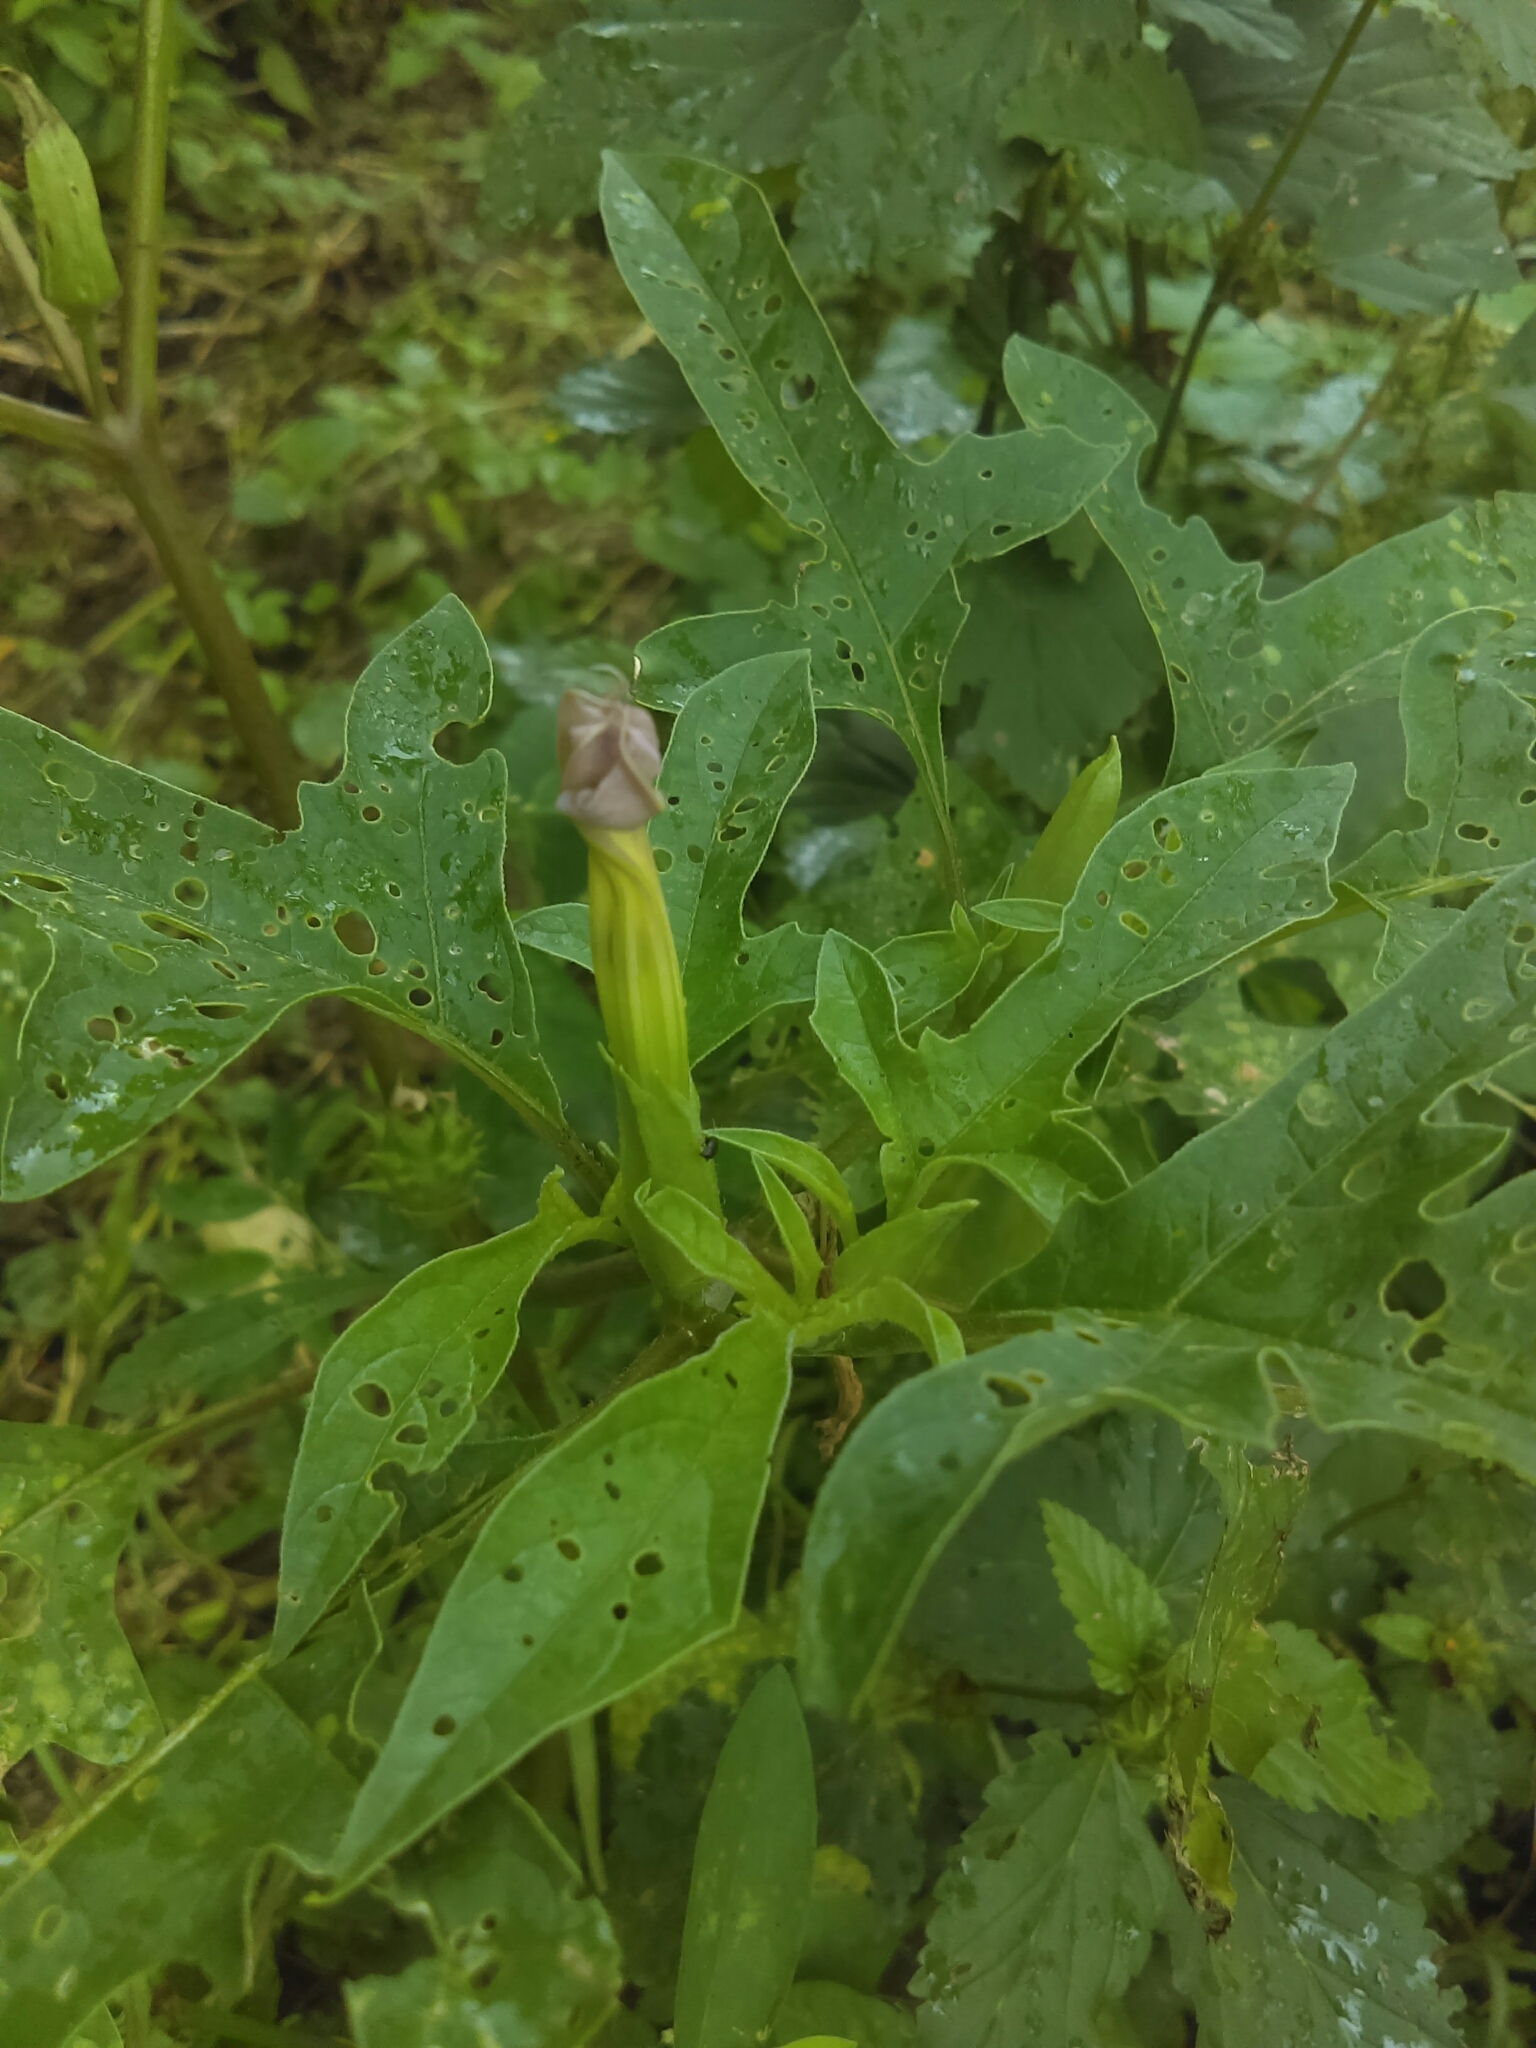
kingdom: Plantae
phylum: Tracheophyta
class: Magnoliopsida
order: Solanales
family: Solanaceae
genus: Datura
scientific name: Datura quercifolia
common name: Oak-leaf datura
